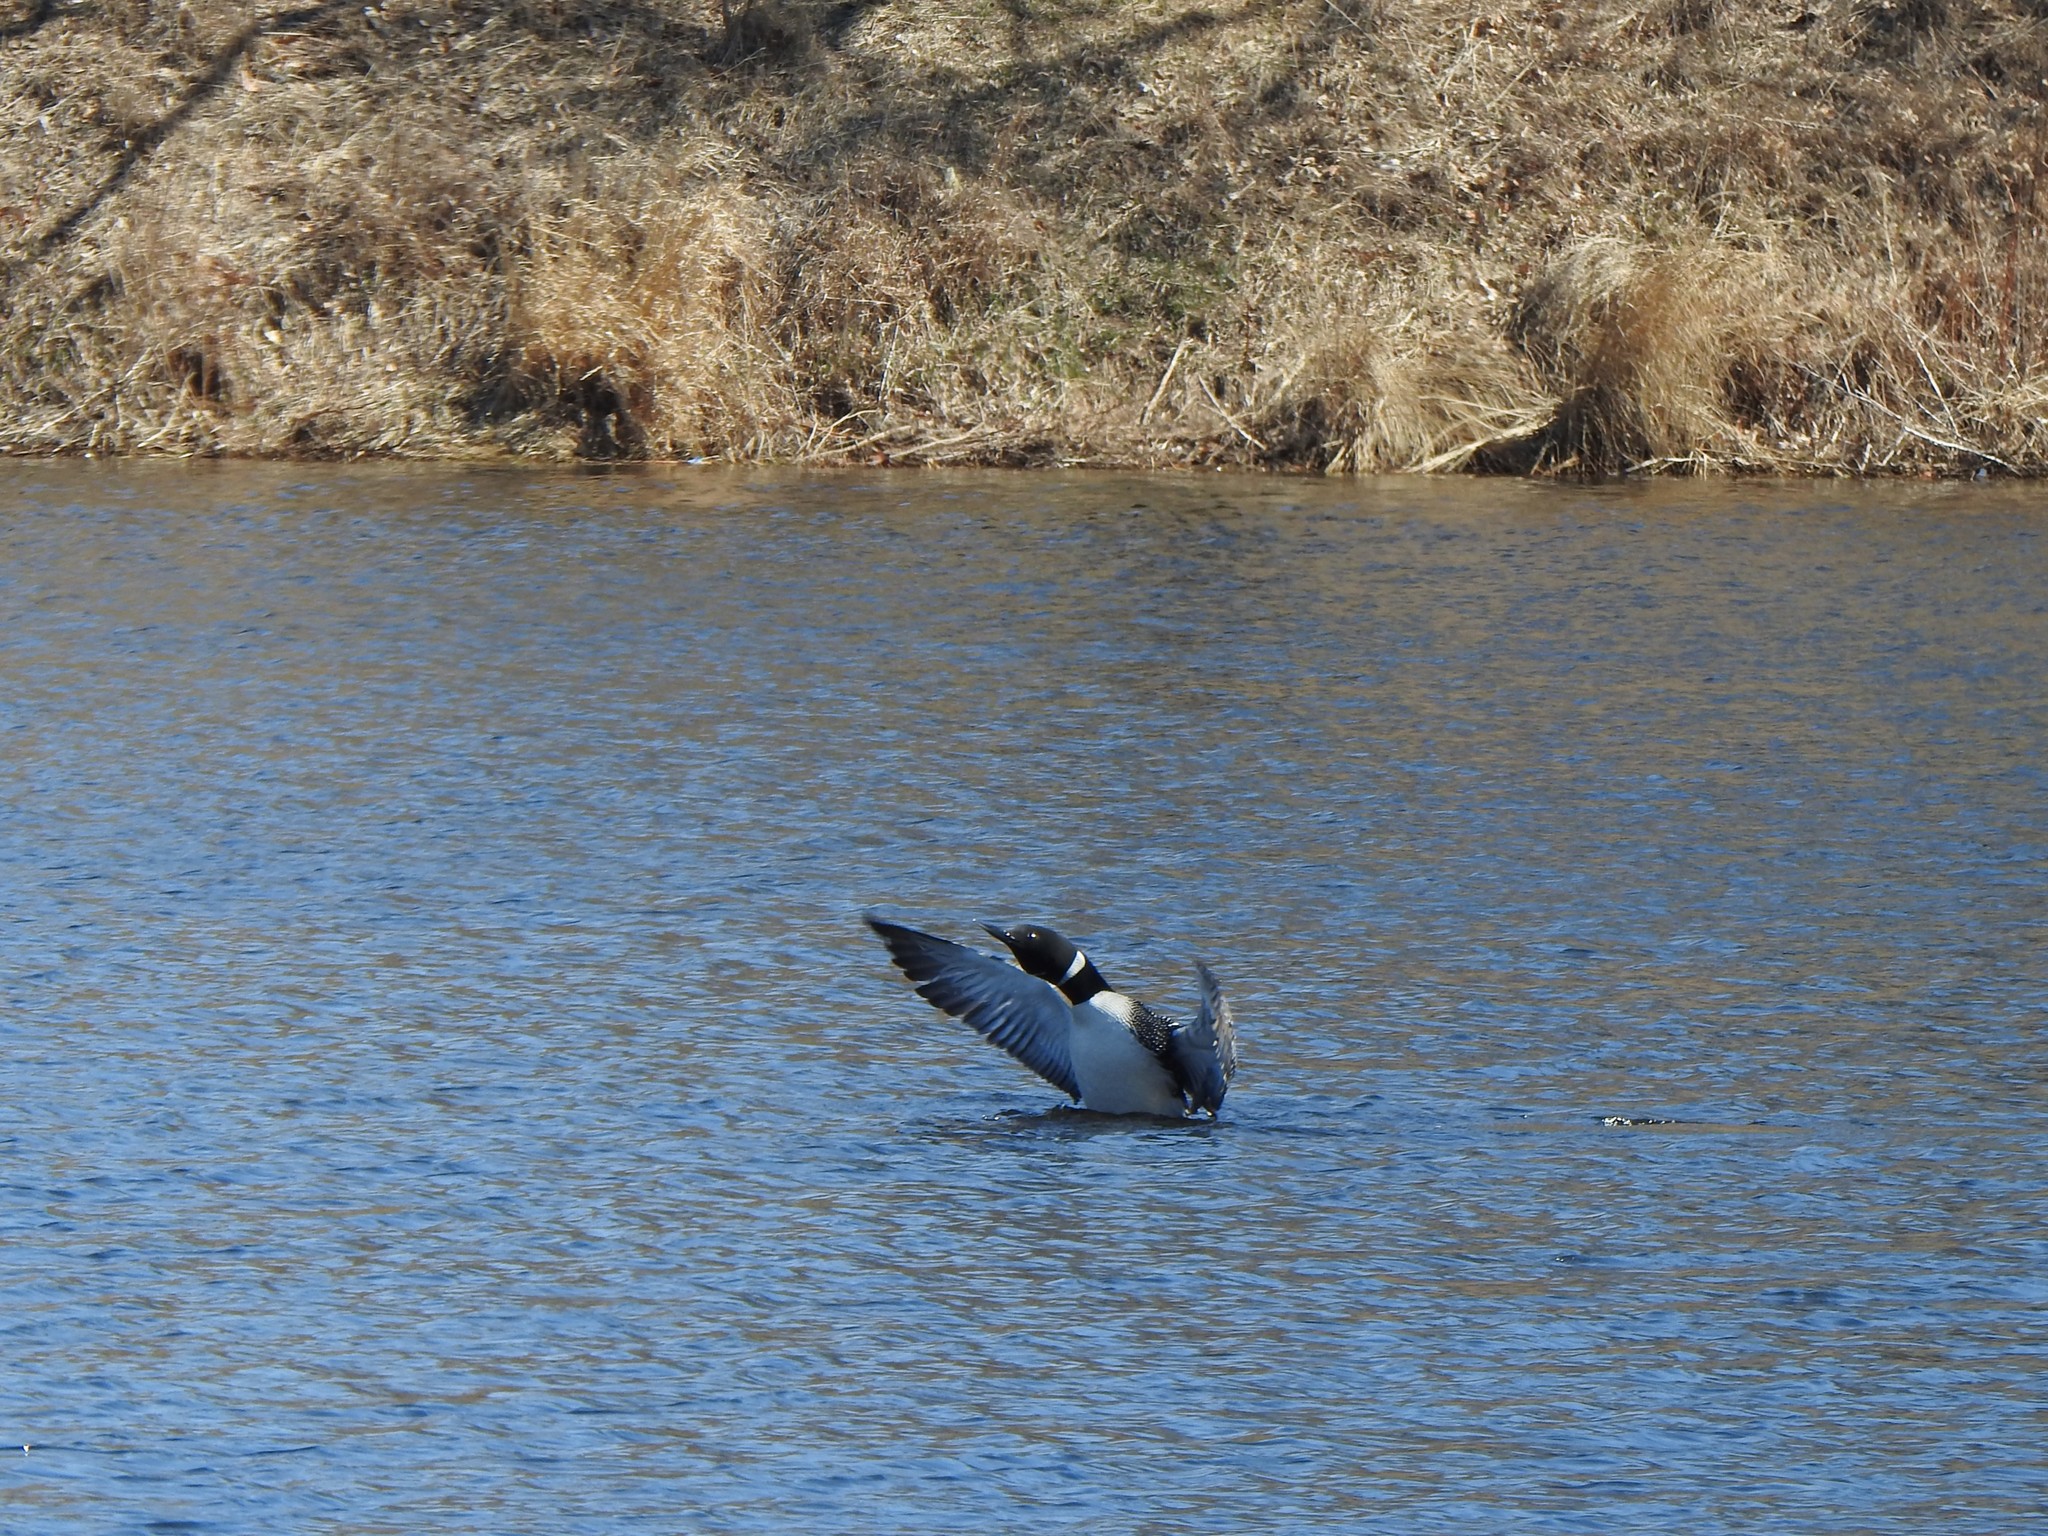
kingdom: Animalia
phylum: Chordata
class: Aves
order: Gaviiformes
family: Gaviidae
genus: Gavia
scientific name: Gavia immer
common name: Common loon
